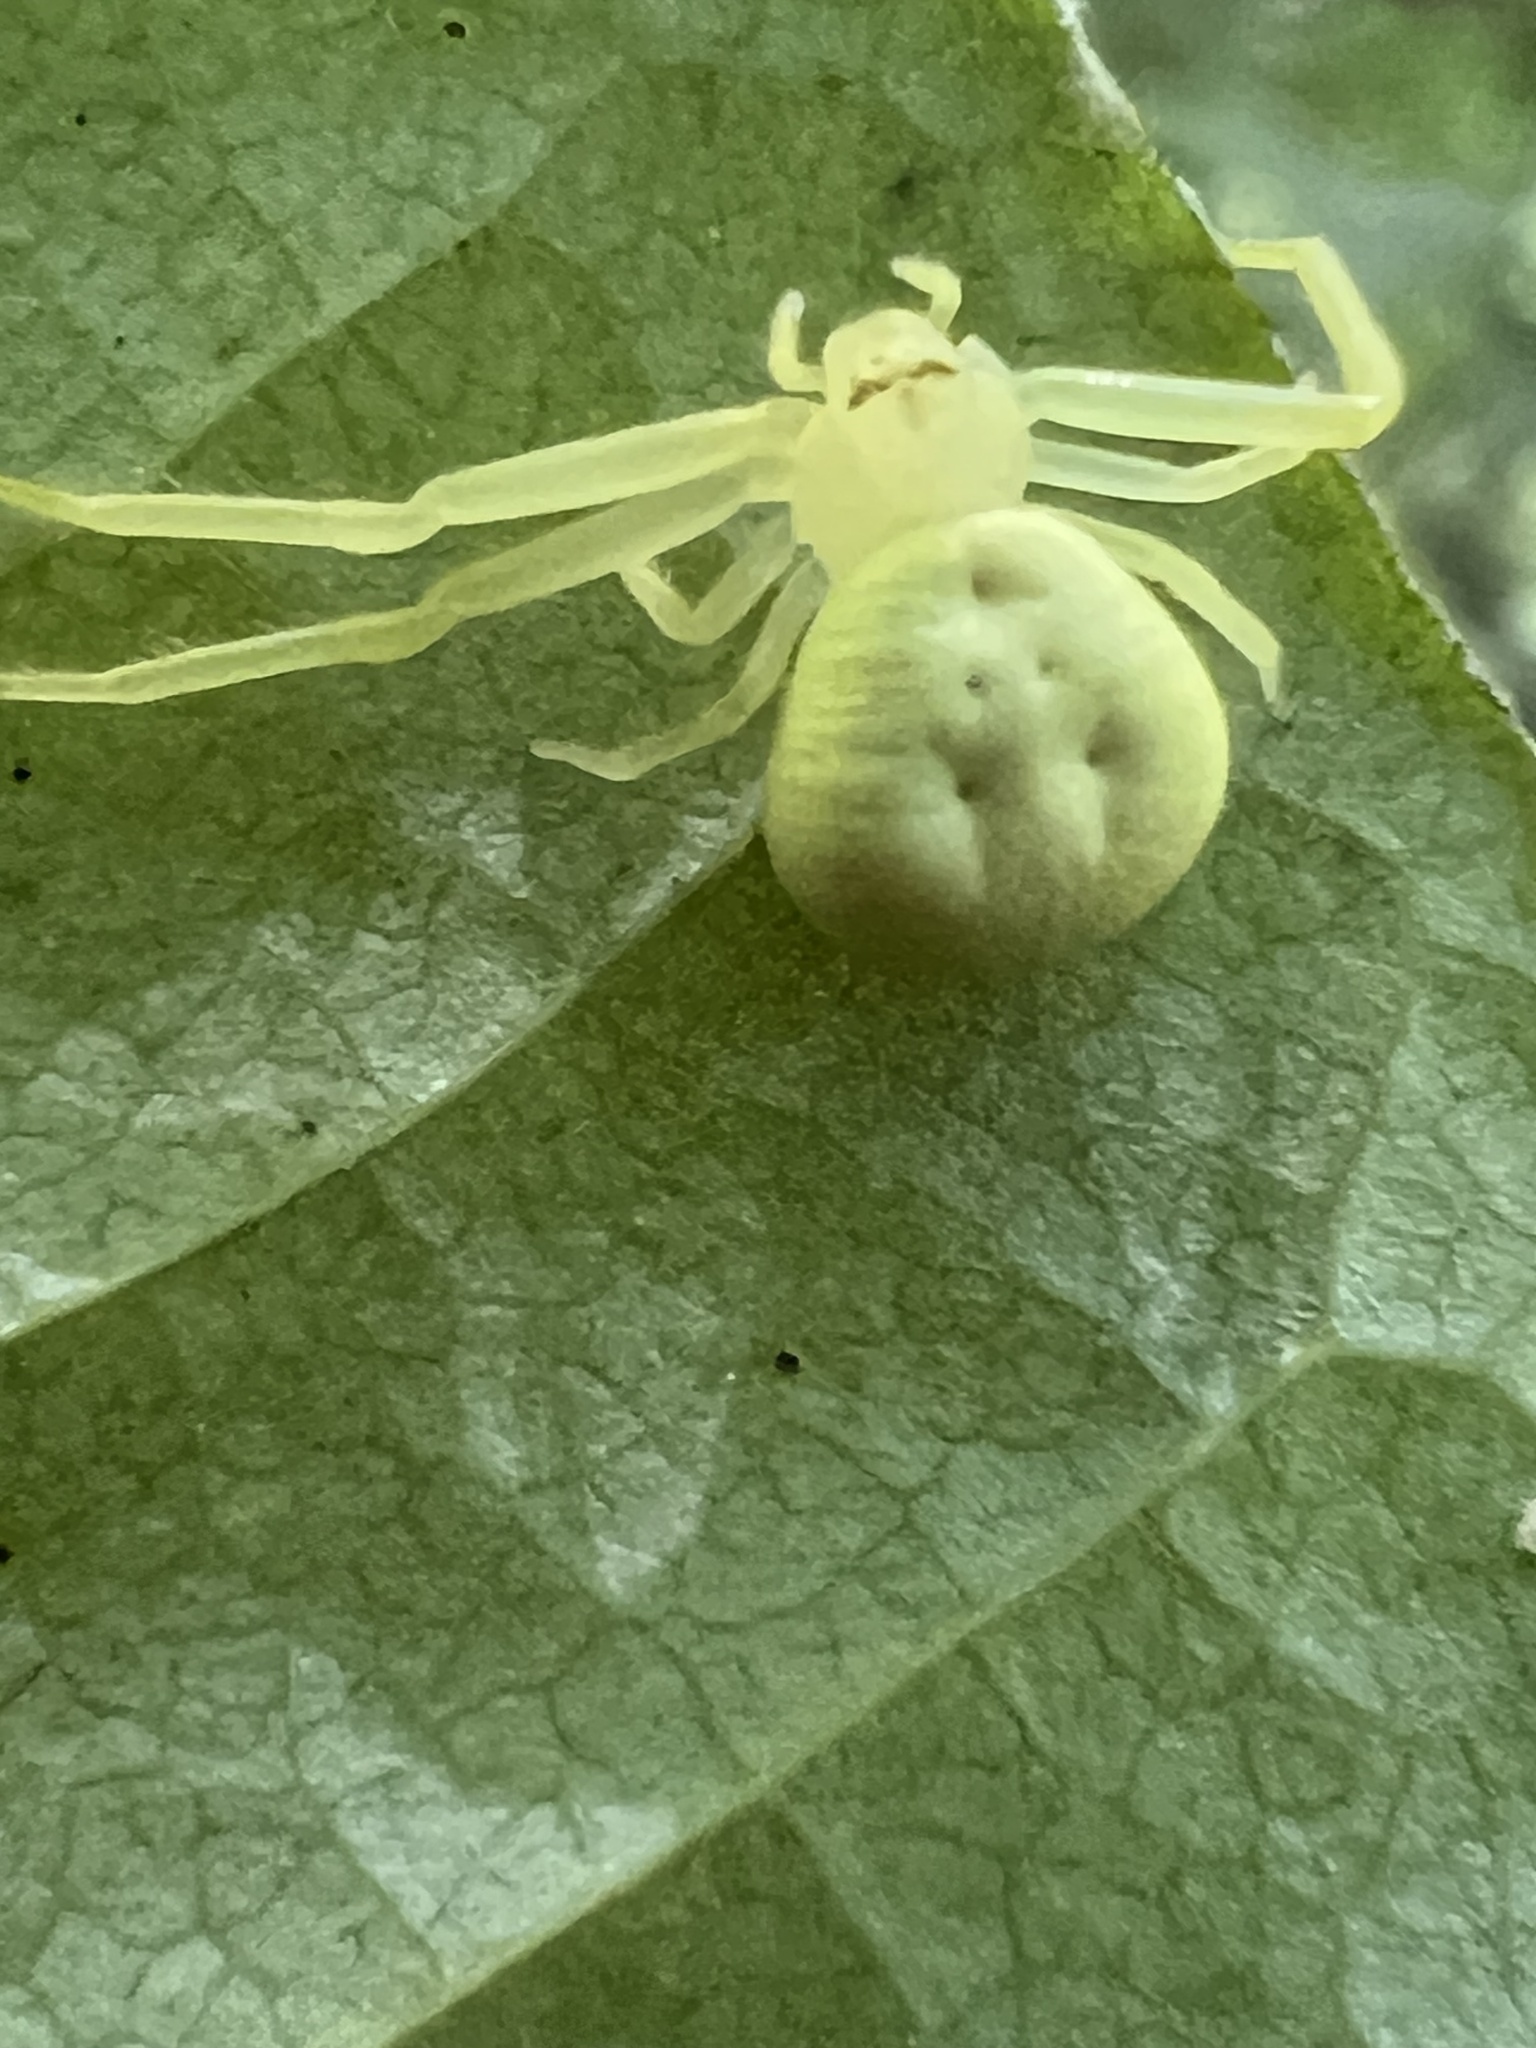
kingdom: Animalia
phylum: Arthropoda
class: Arachnida
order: Araneae
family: Thomisidae
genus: Misumessus
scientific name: Misumessus oblongus
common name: American green crab spider
